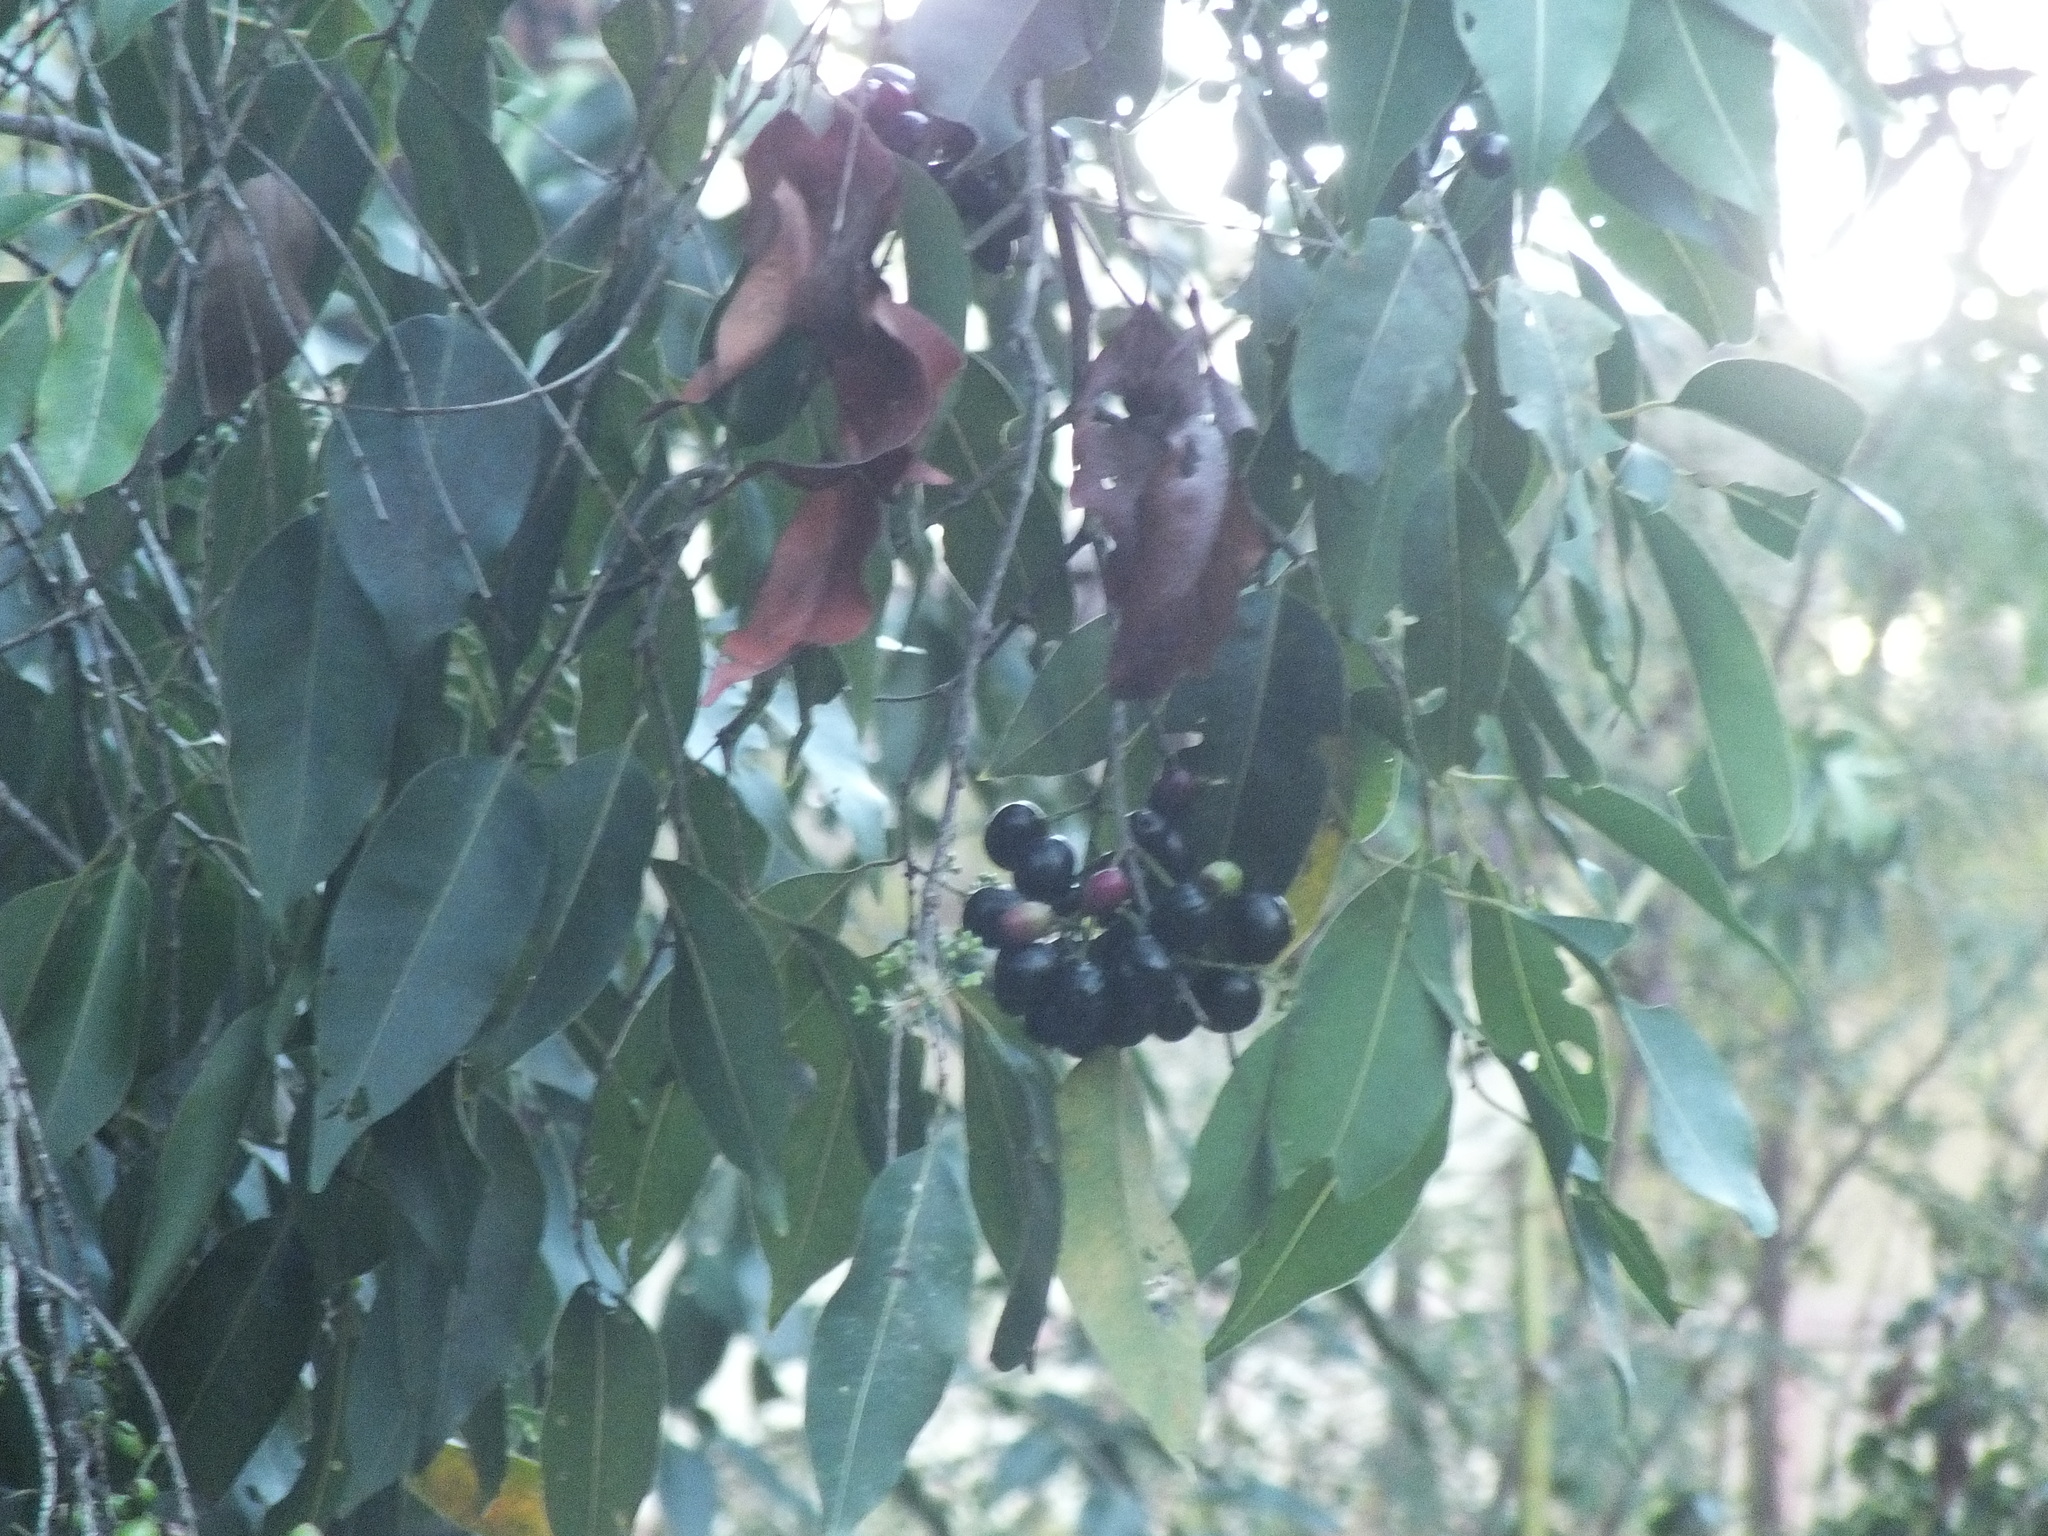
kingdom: Plantae
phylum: Tracheophyta
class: Magnoliopsida
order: Myrtales
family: Myrtaceae
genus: Syzygium
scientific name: Syzygium cumini
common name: Java plum
